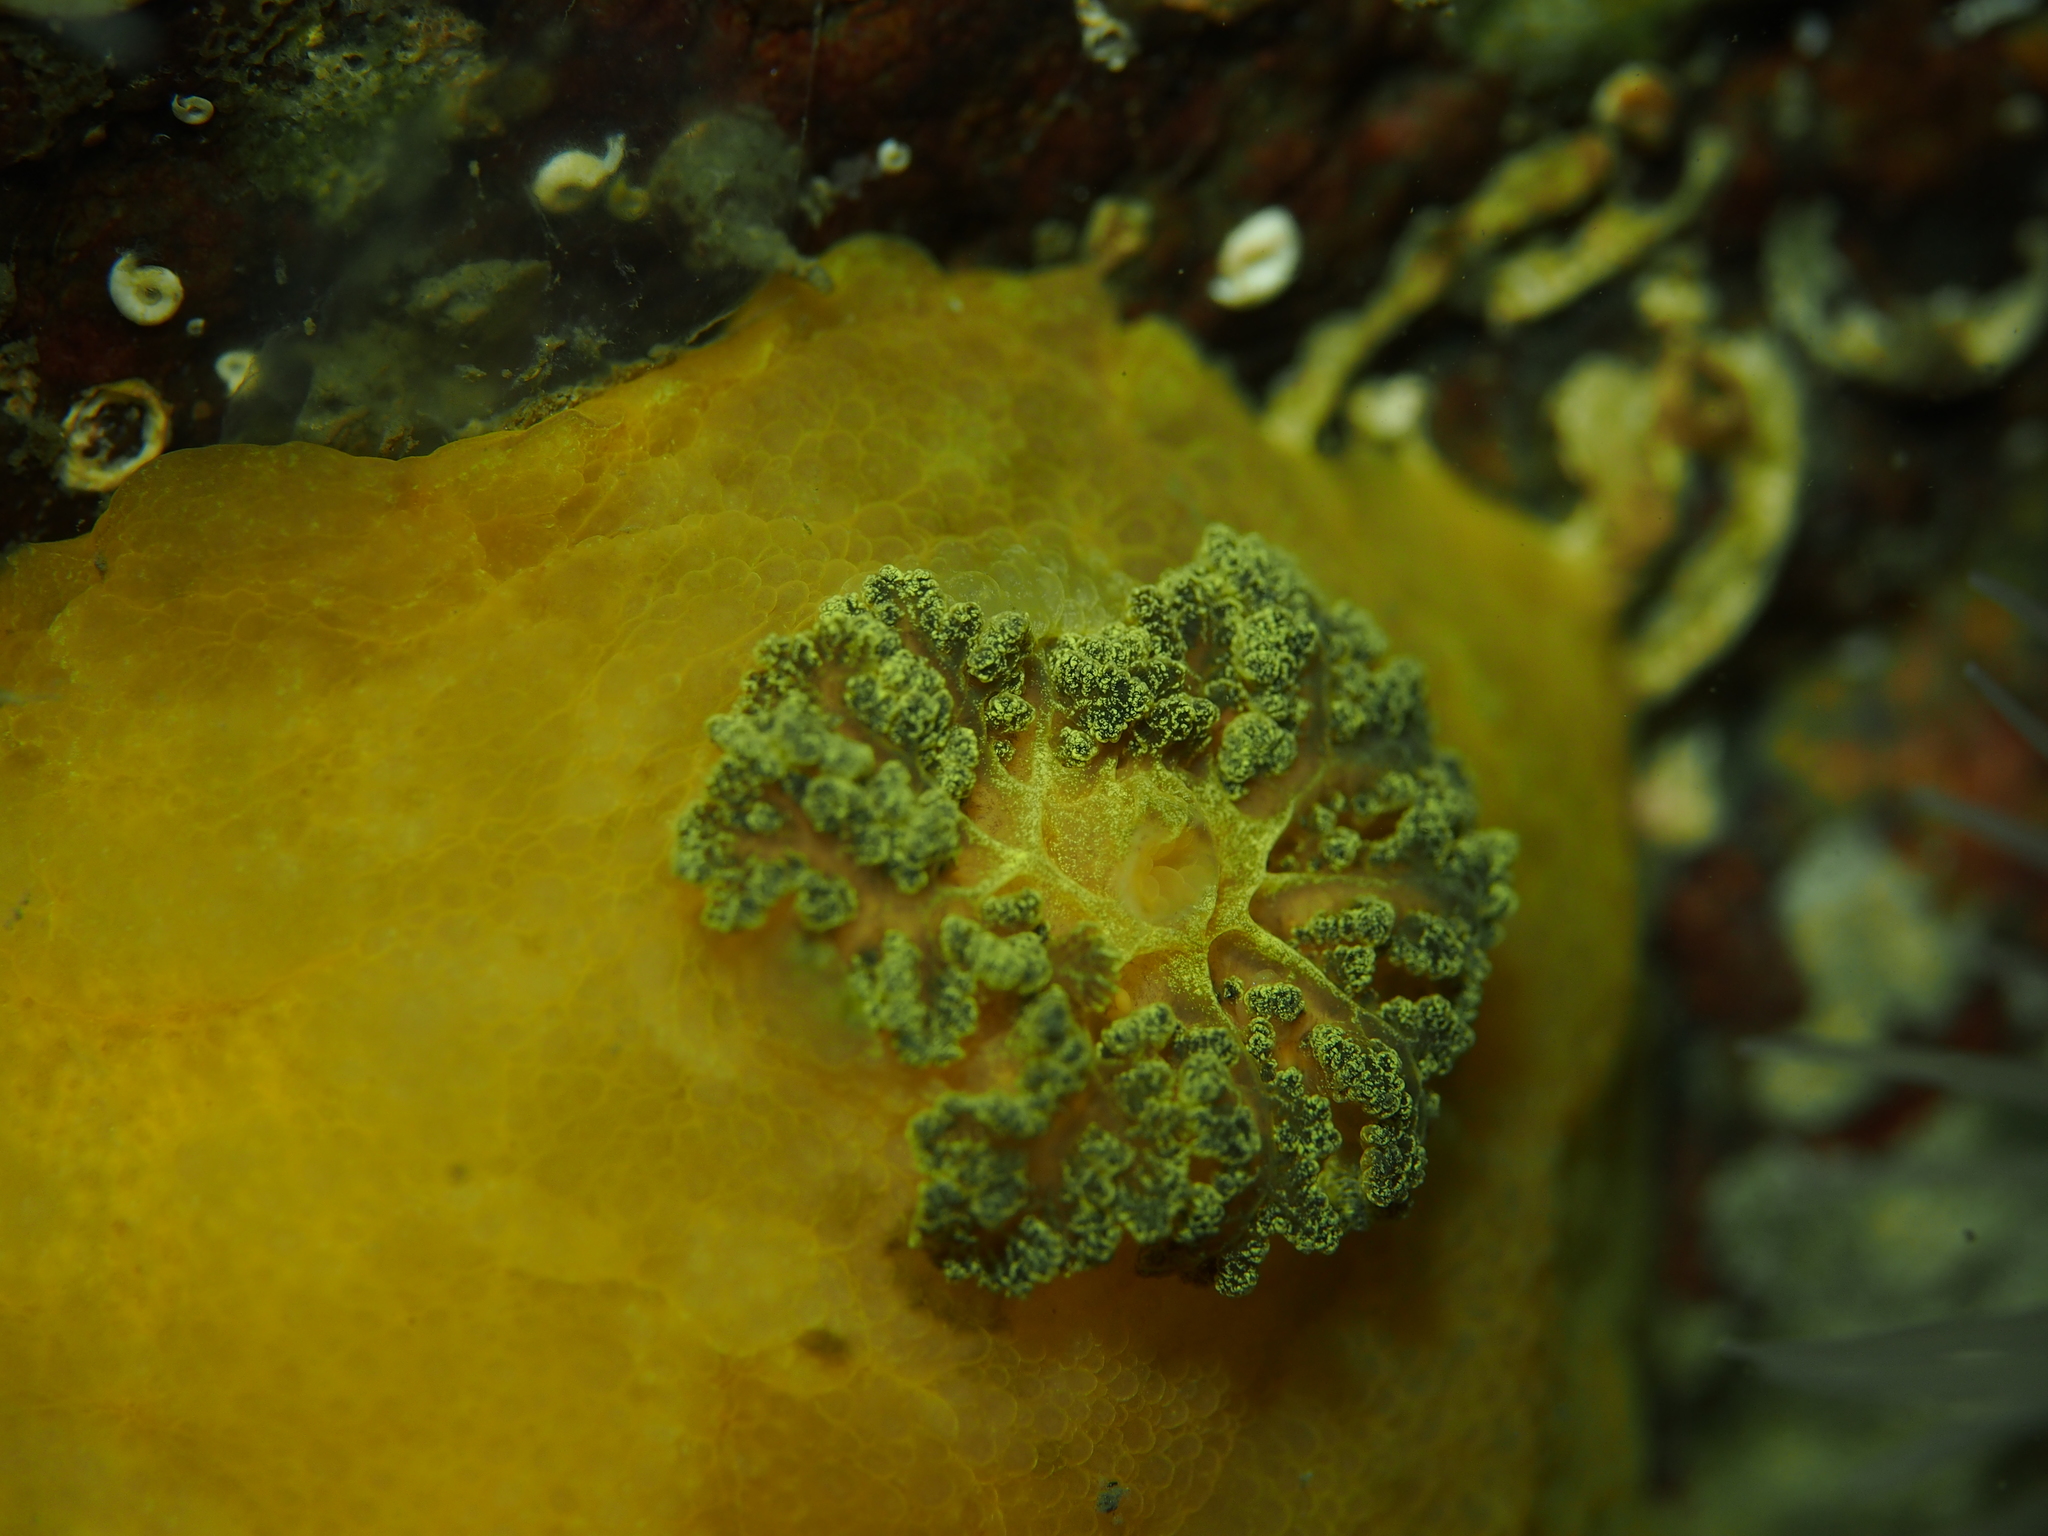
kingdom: Animalia
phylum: Mollusca
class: Gastropoda
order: Nudibranchia
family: Dorididae
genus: Doris
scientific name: Doris pseudoargus
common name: Sea lemon
